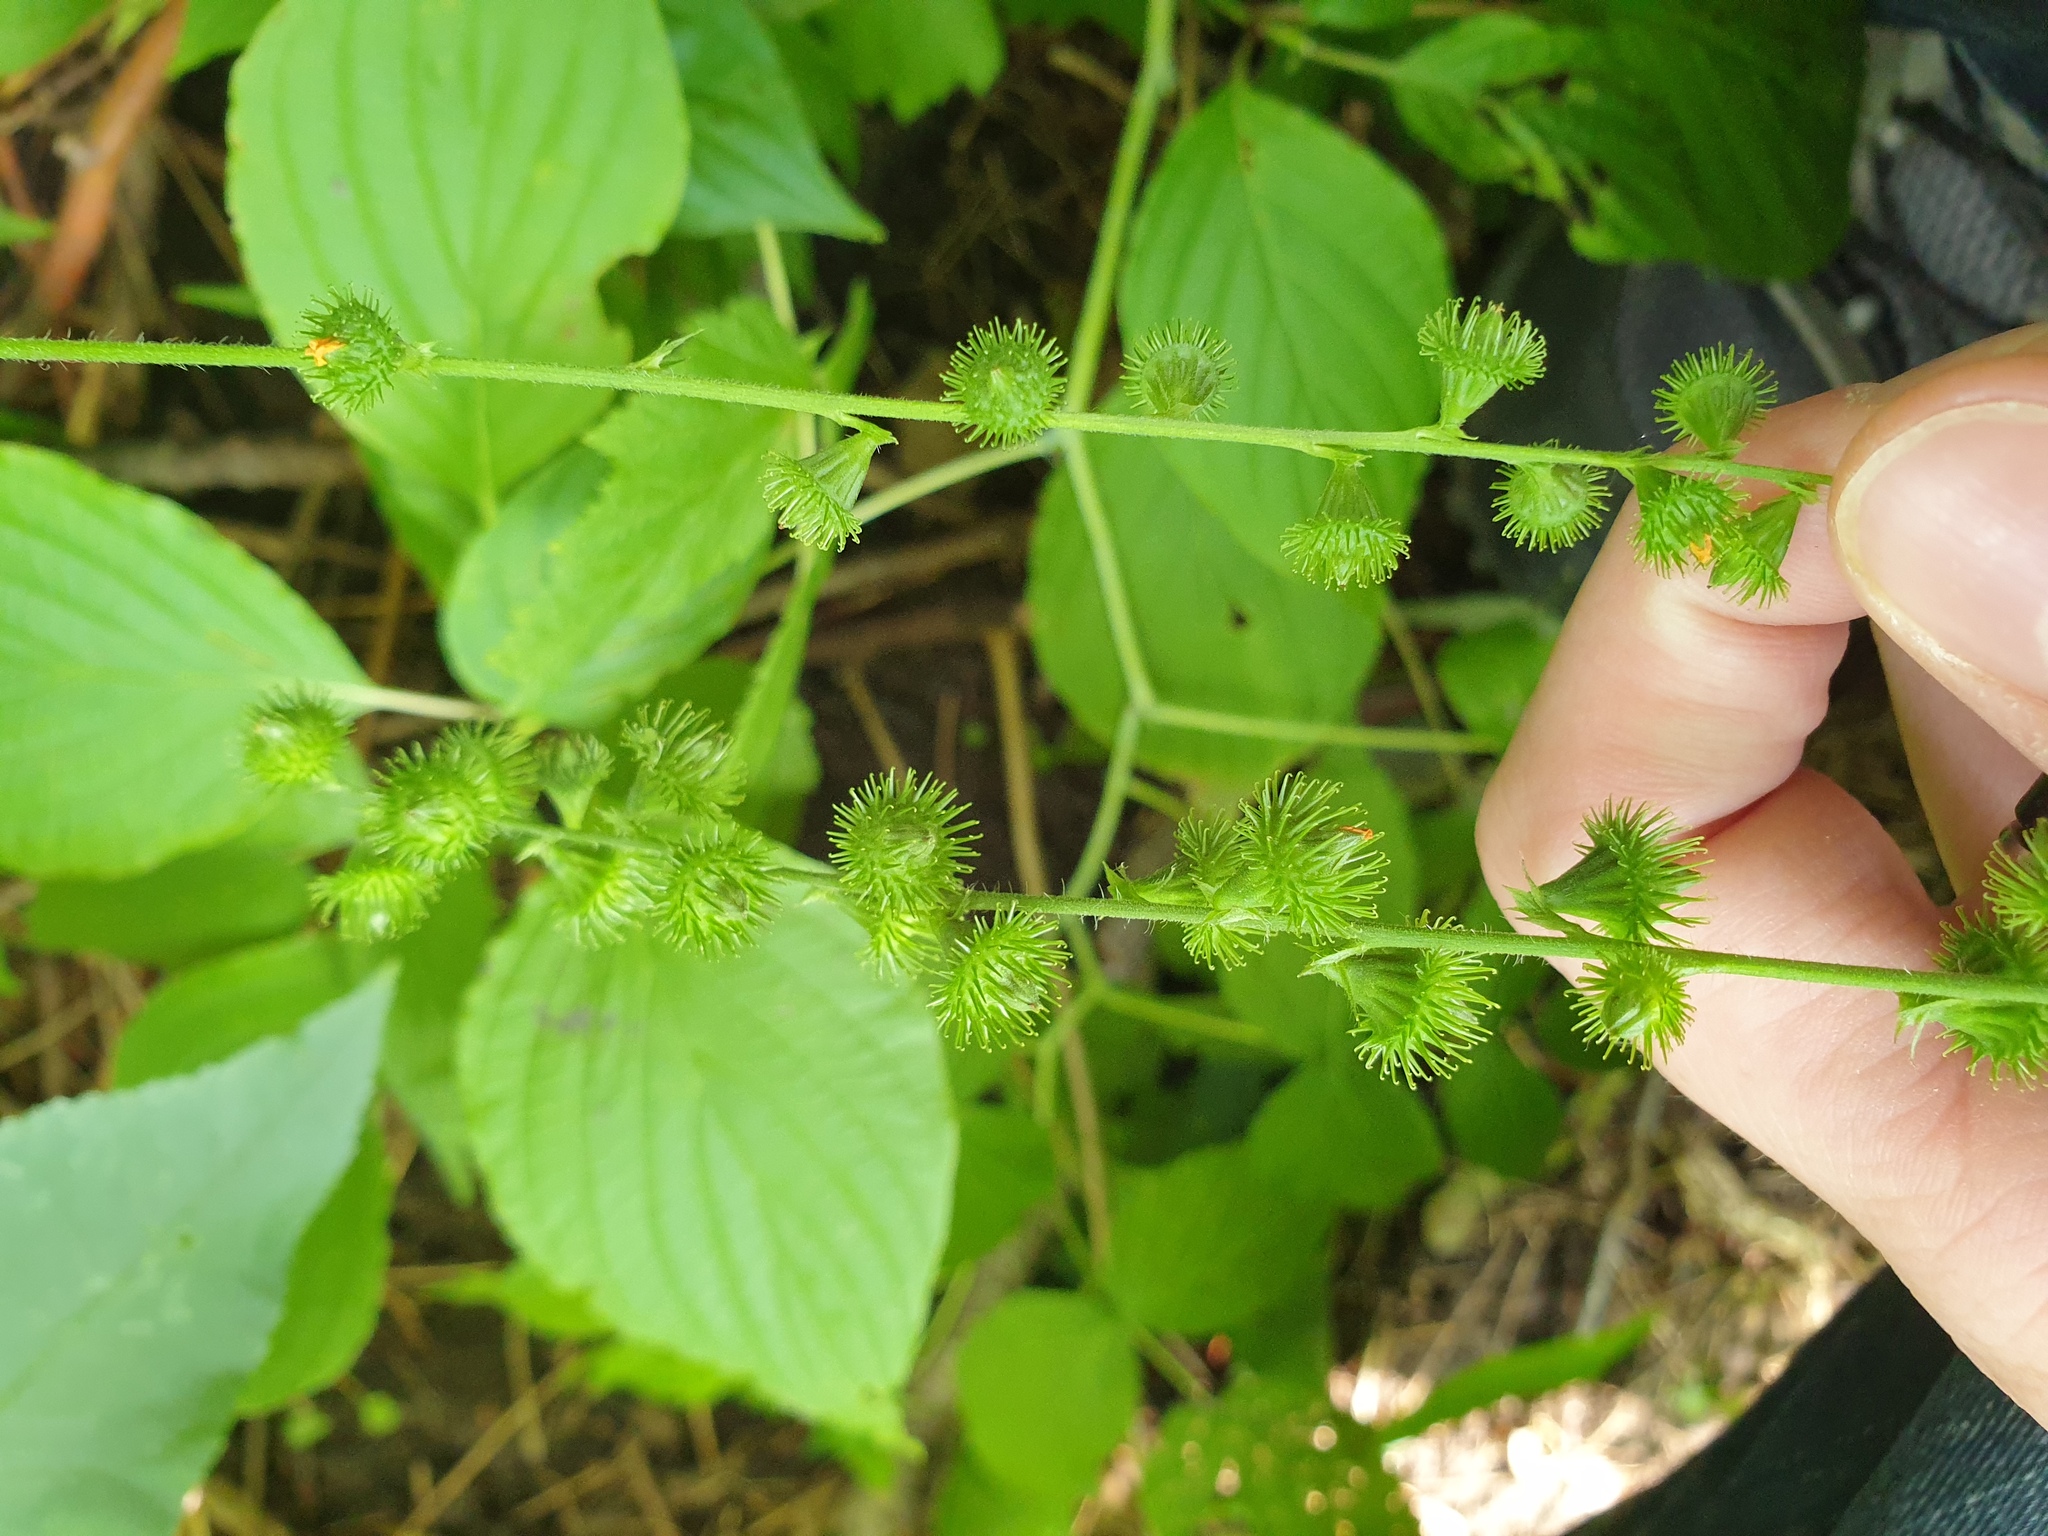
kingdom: Plantae
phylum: Tracheophyta
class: Magnoliopsida
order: Rosales
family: Rosaceae
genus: Agrimonia
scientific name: Agrimonia gryposepala
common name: Common agrimony
